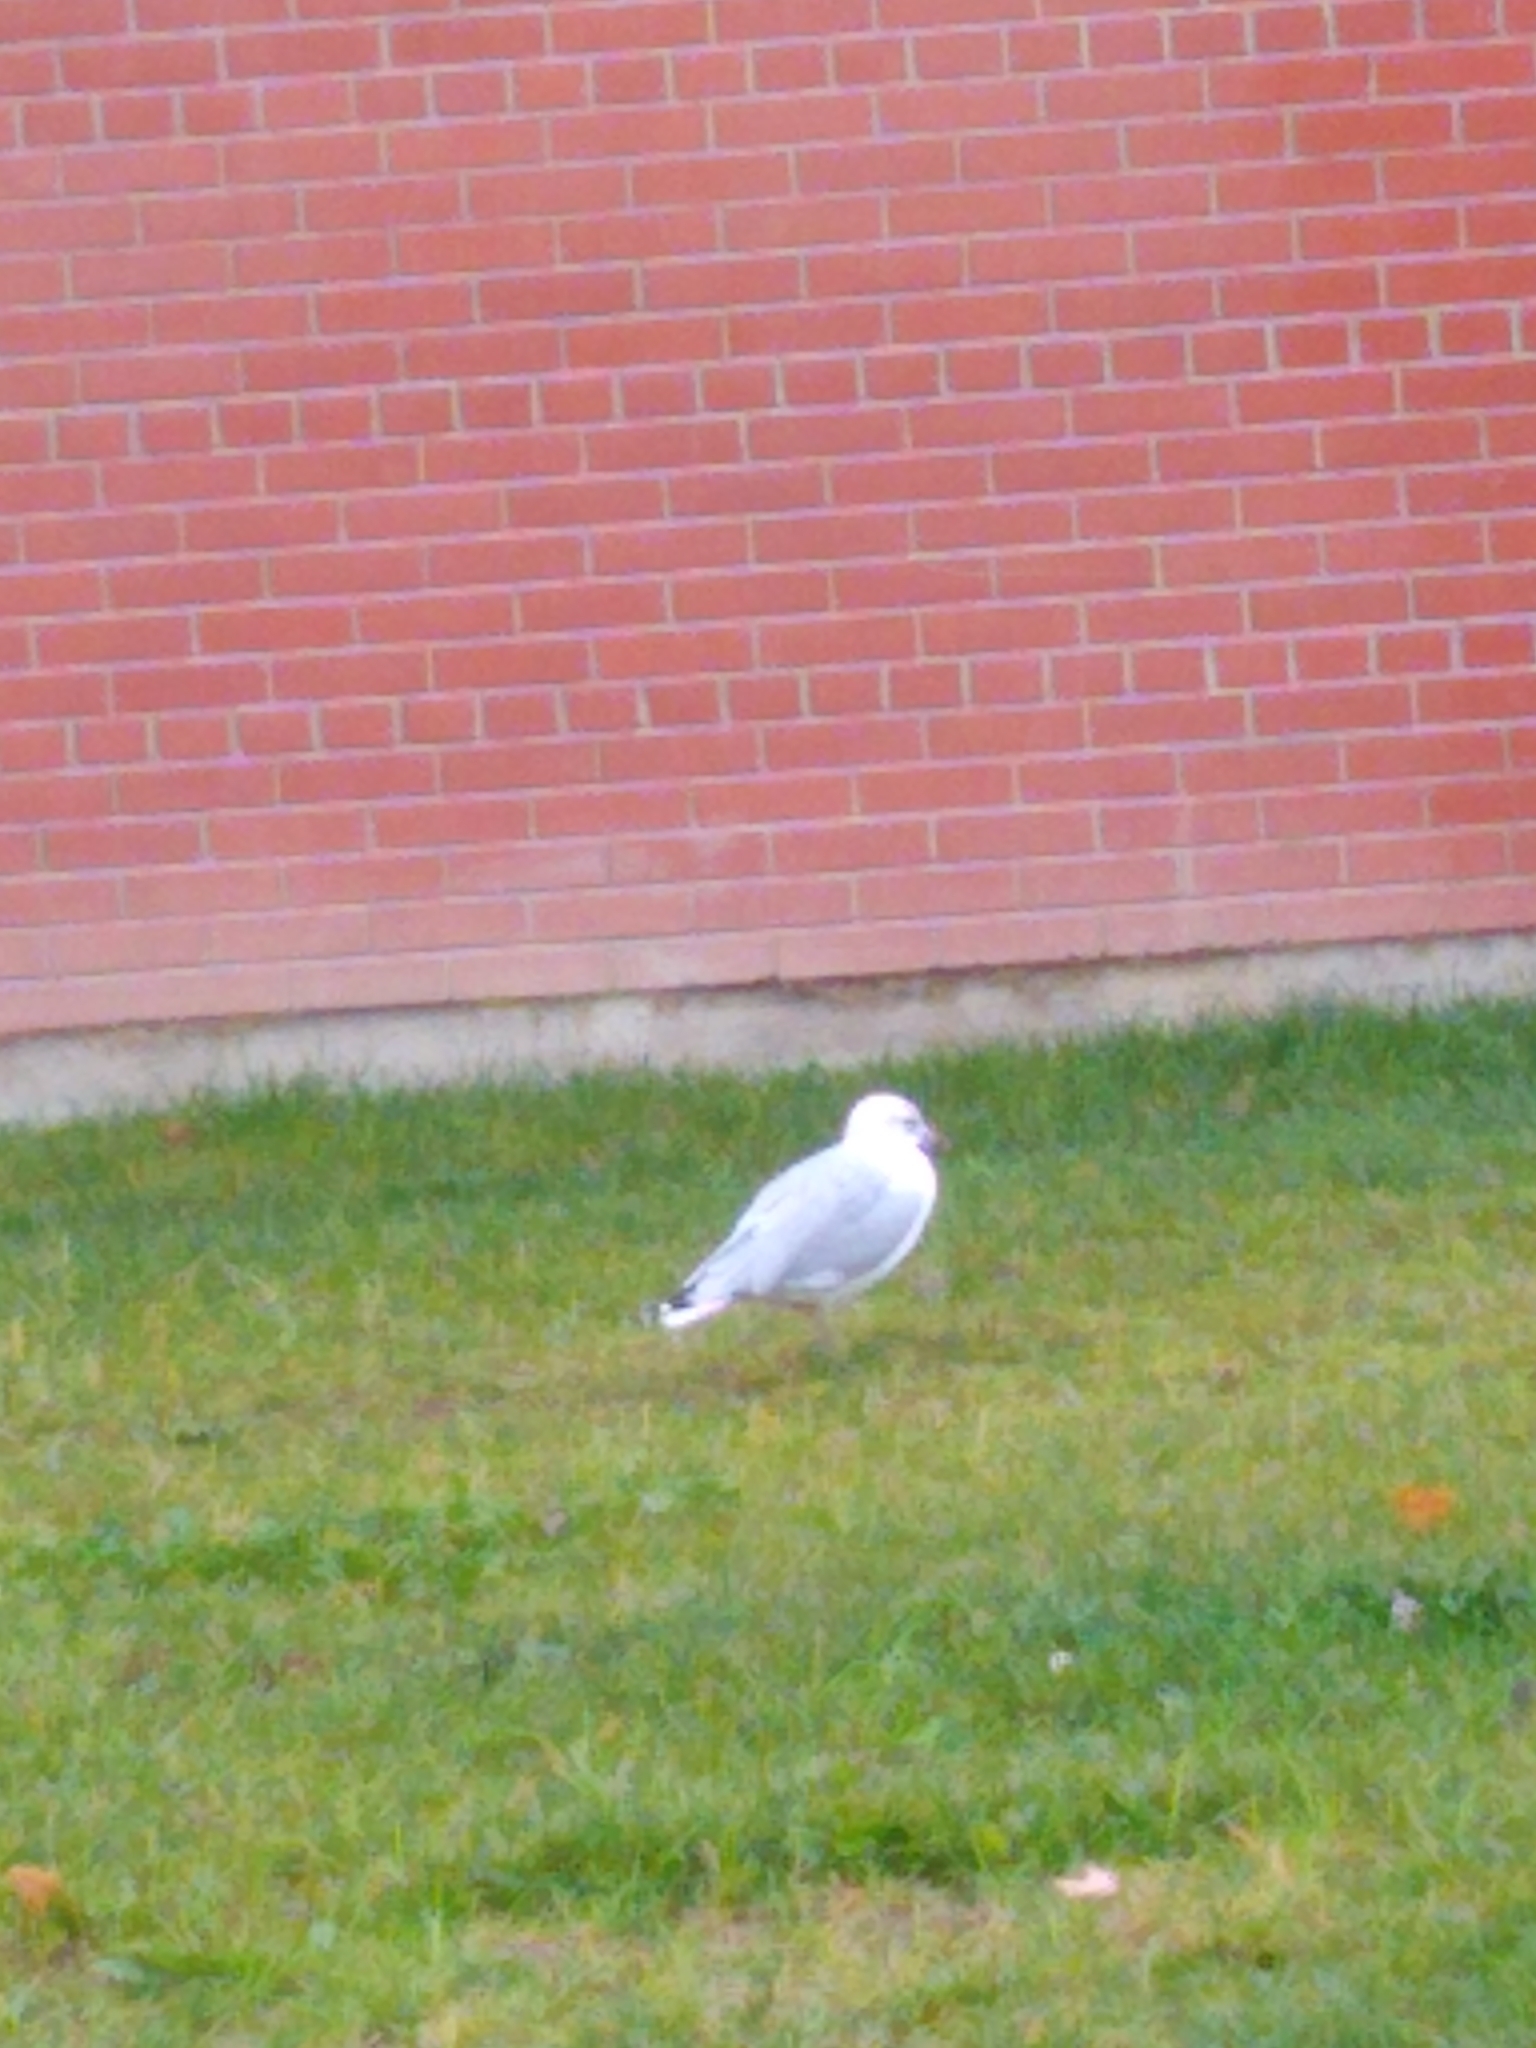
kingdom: Animalia
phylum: Chordata
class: Aves
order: Charadriiformes
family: Laridae
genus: Larus
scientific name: Larus delawarensis
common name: Ring-billed gull
